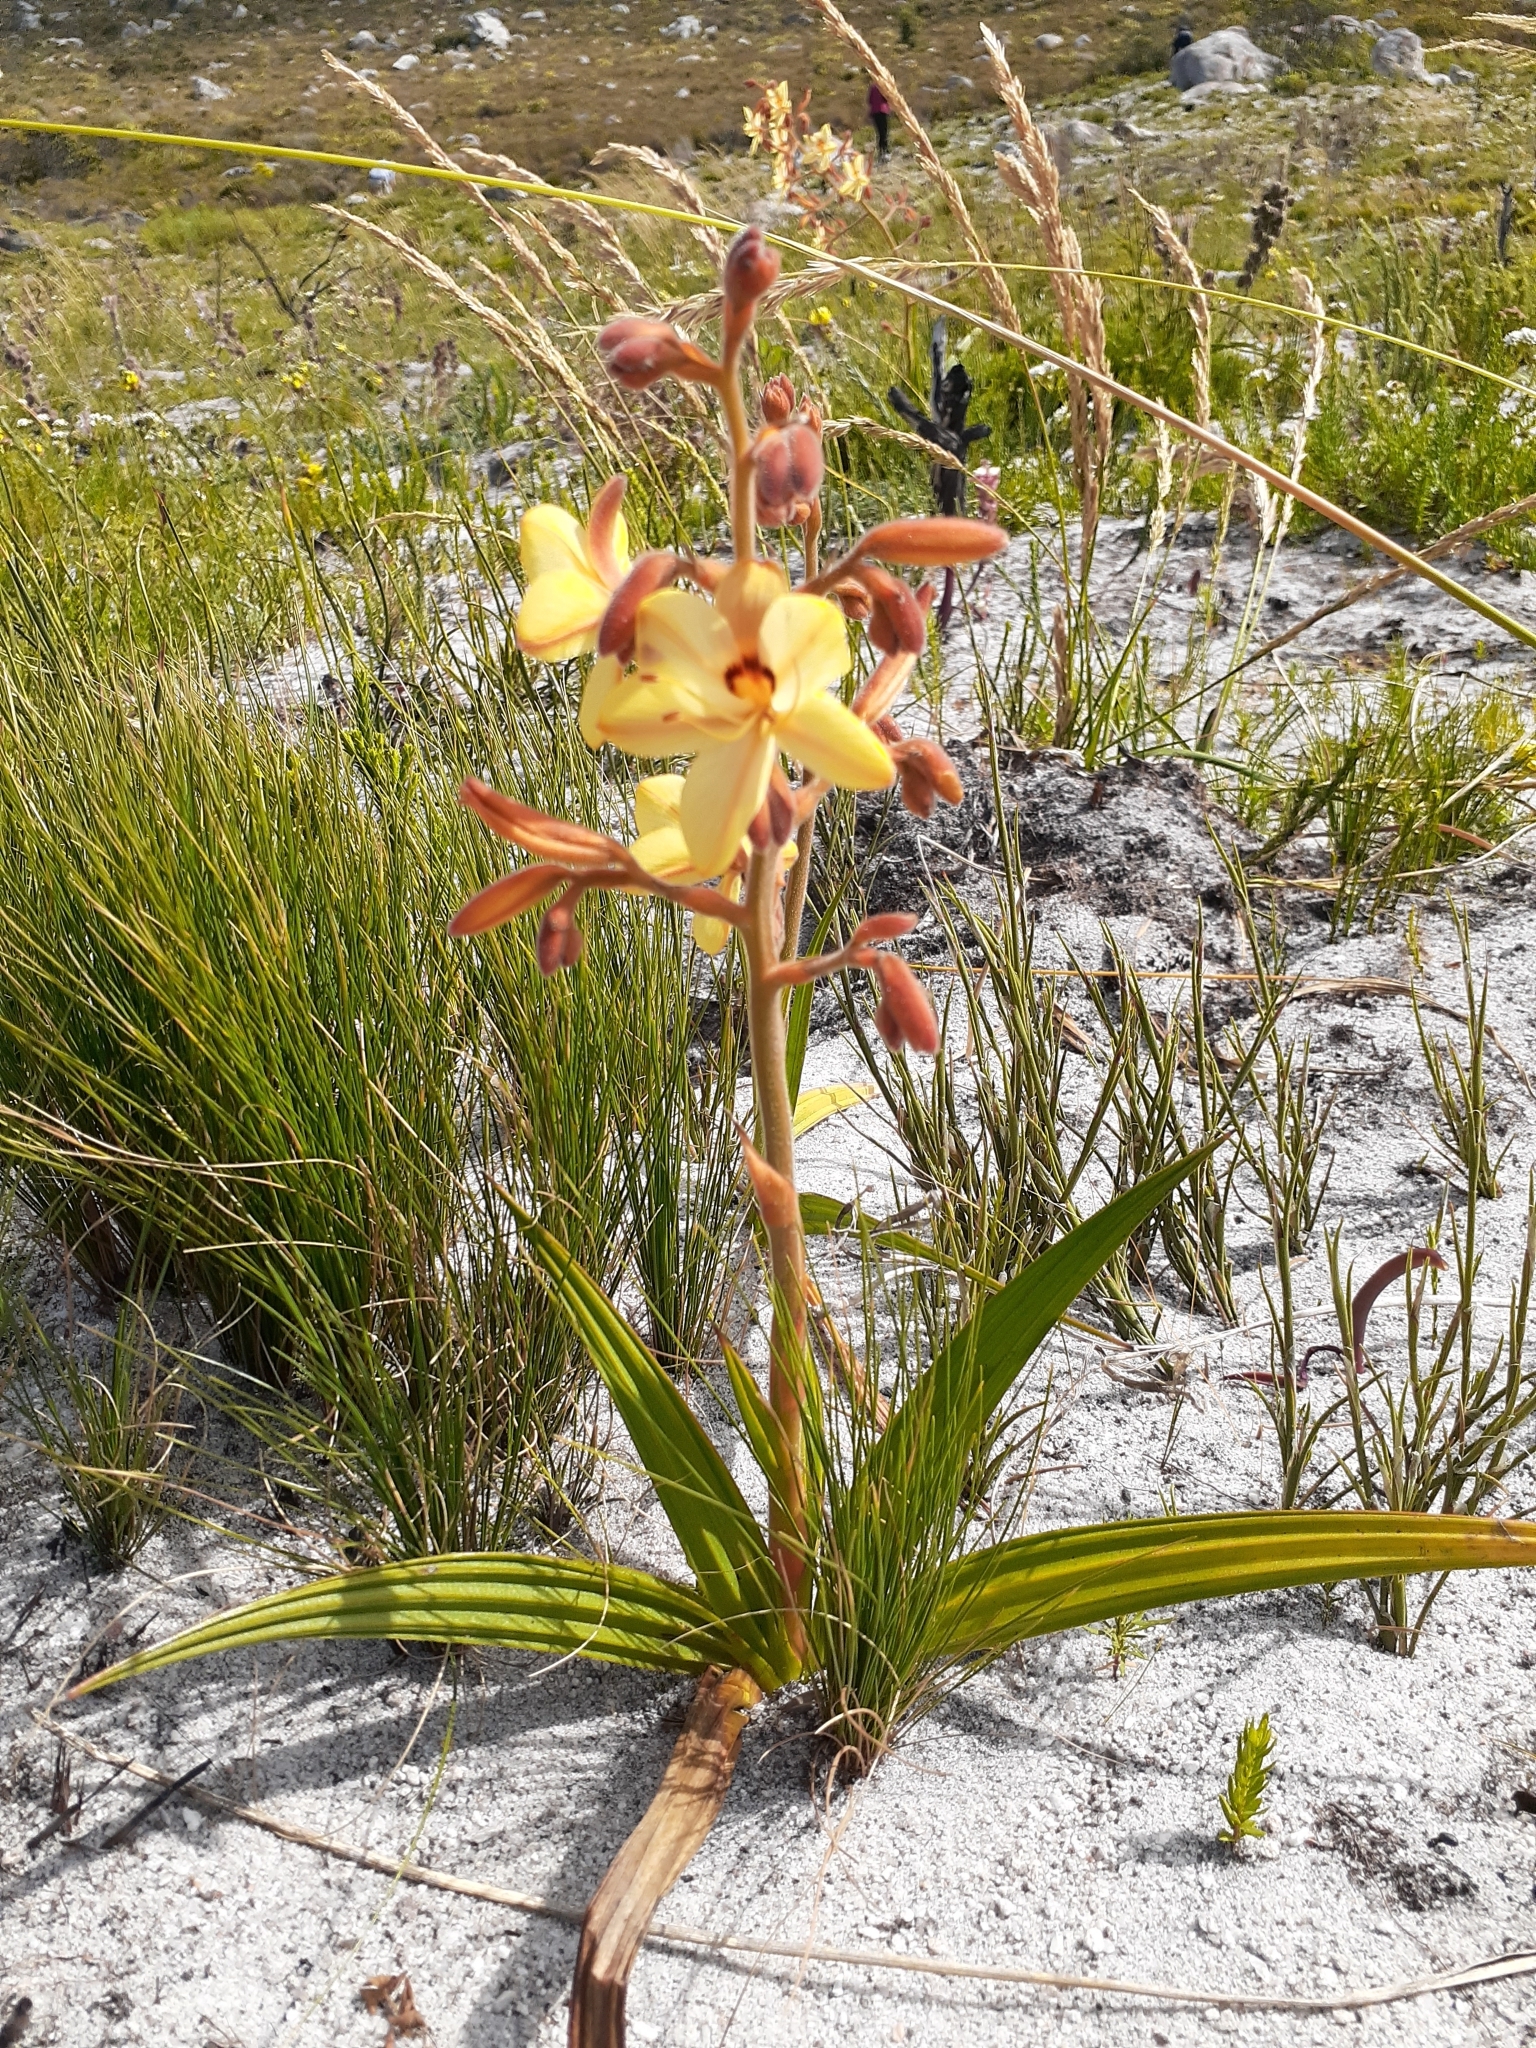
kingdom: Plantae
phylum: Tracheophyta
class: Liliopsida
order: Commelinales
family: Haemodoraceae
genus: Wachendorfia
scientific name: Wachendorfia paniculata
